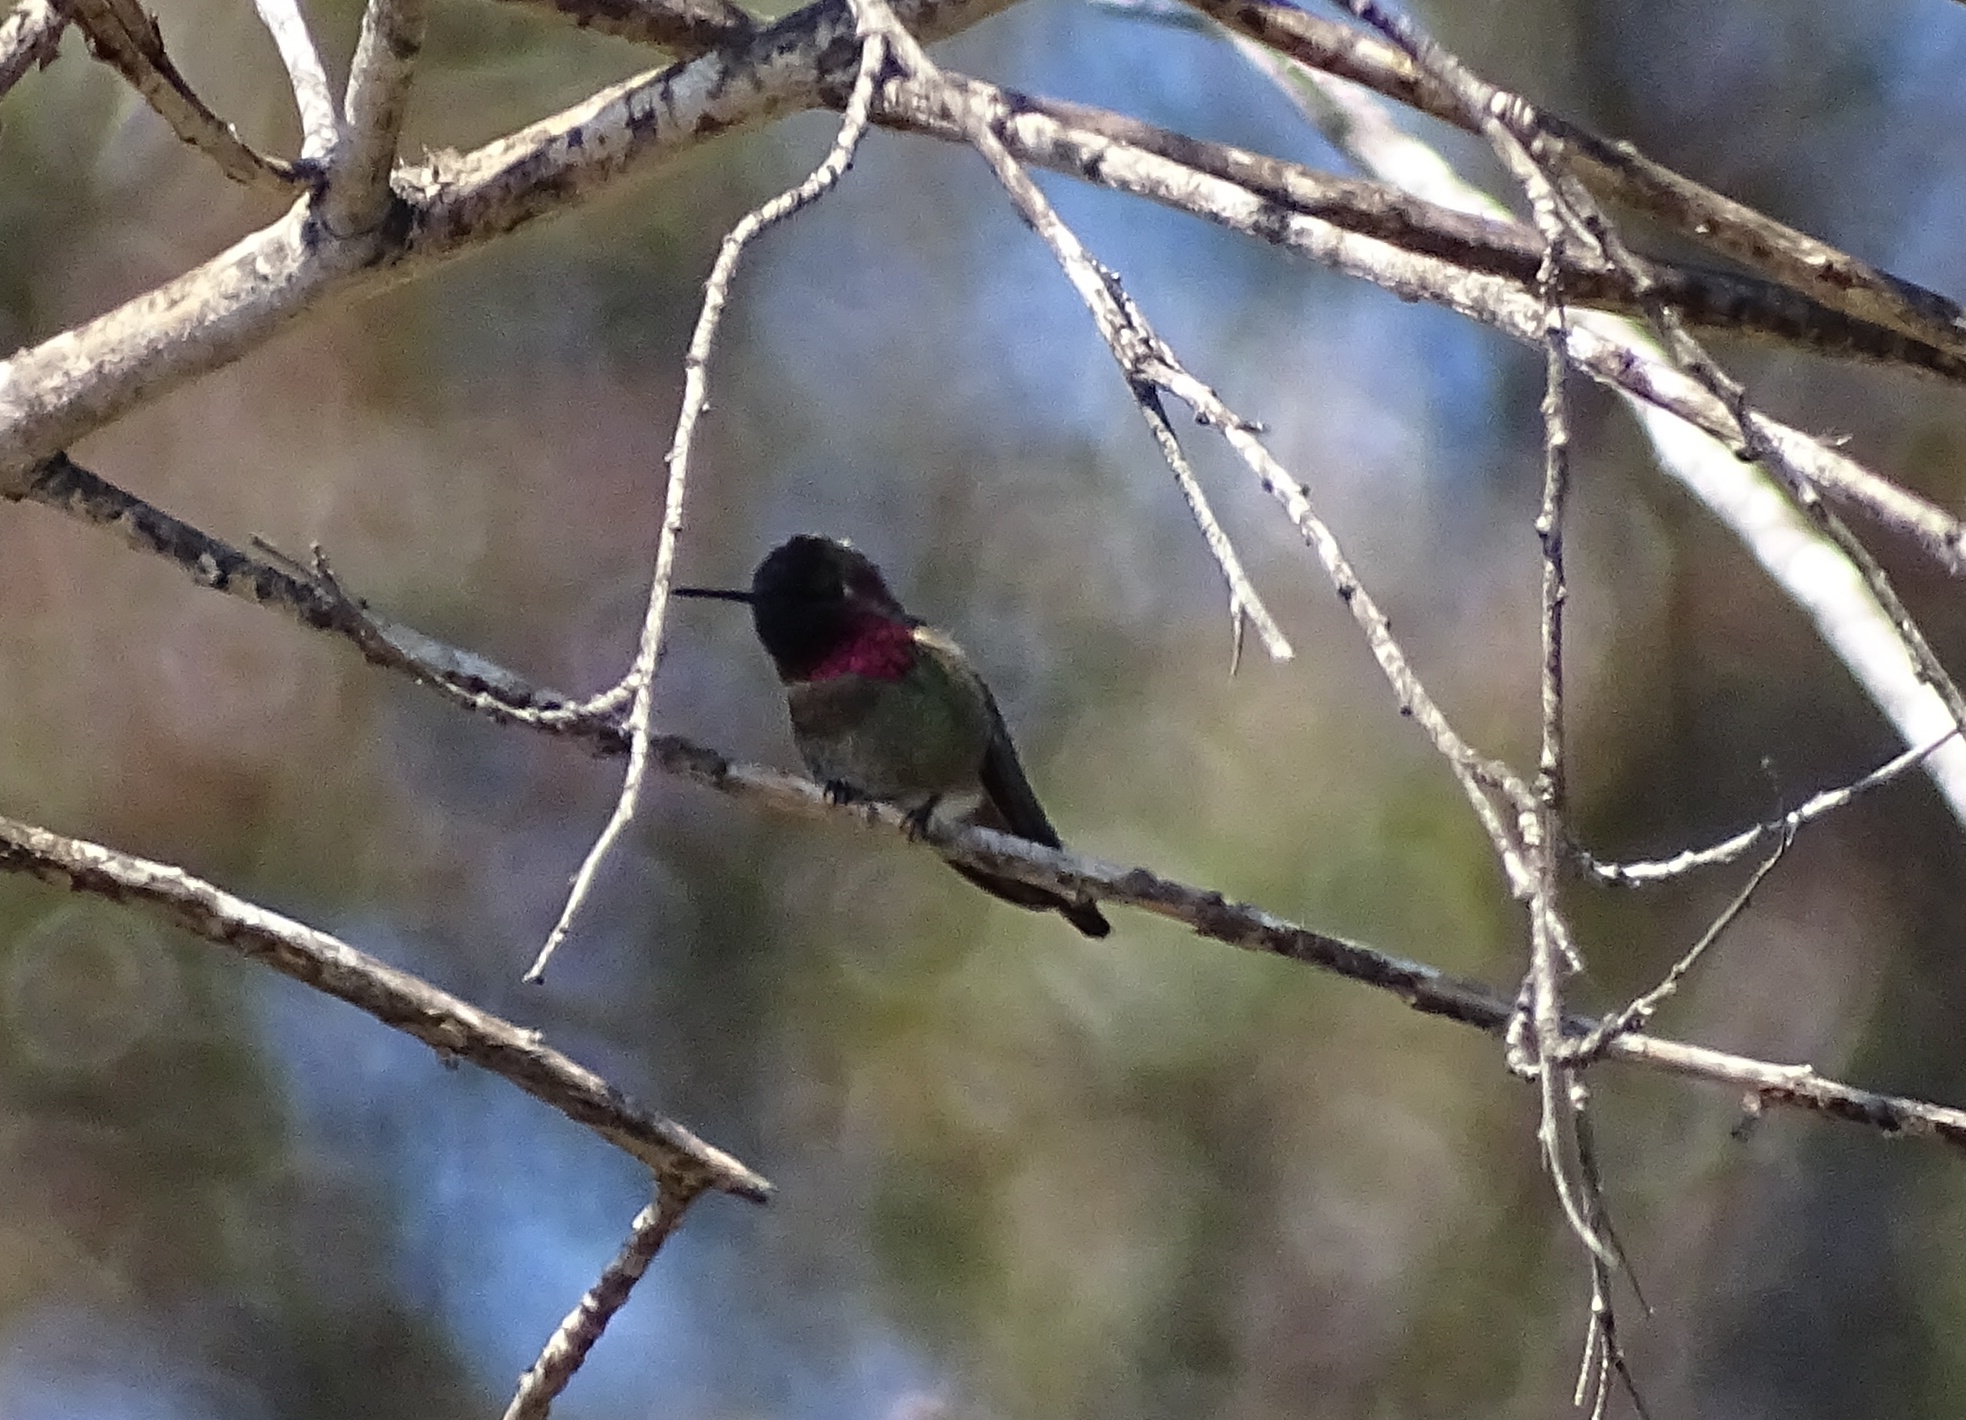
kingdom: Animalia
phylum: Chordata
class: Aves
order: Apodiformes
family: Trochilidae
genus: Calypte
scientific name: Calypte anna
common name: Anna's hummingbird
